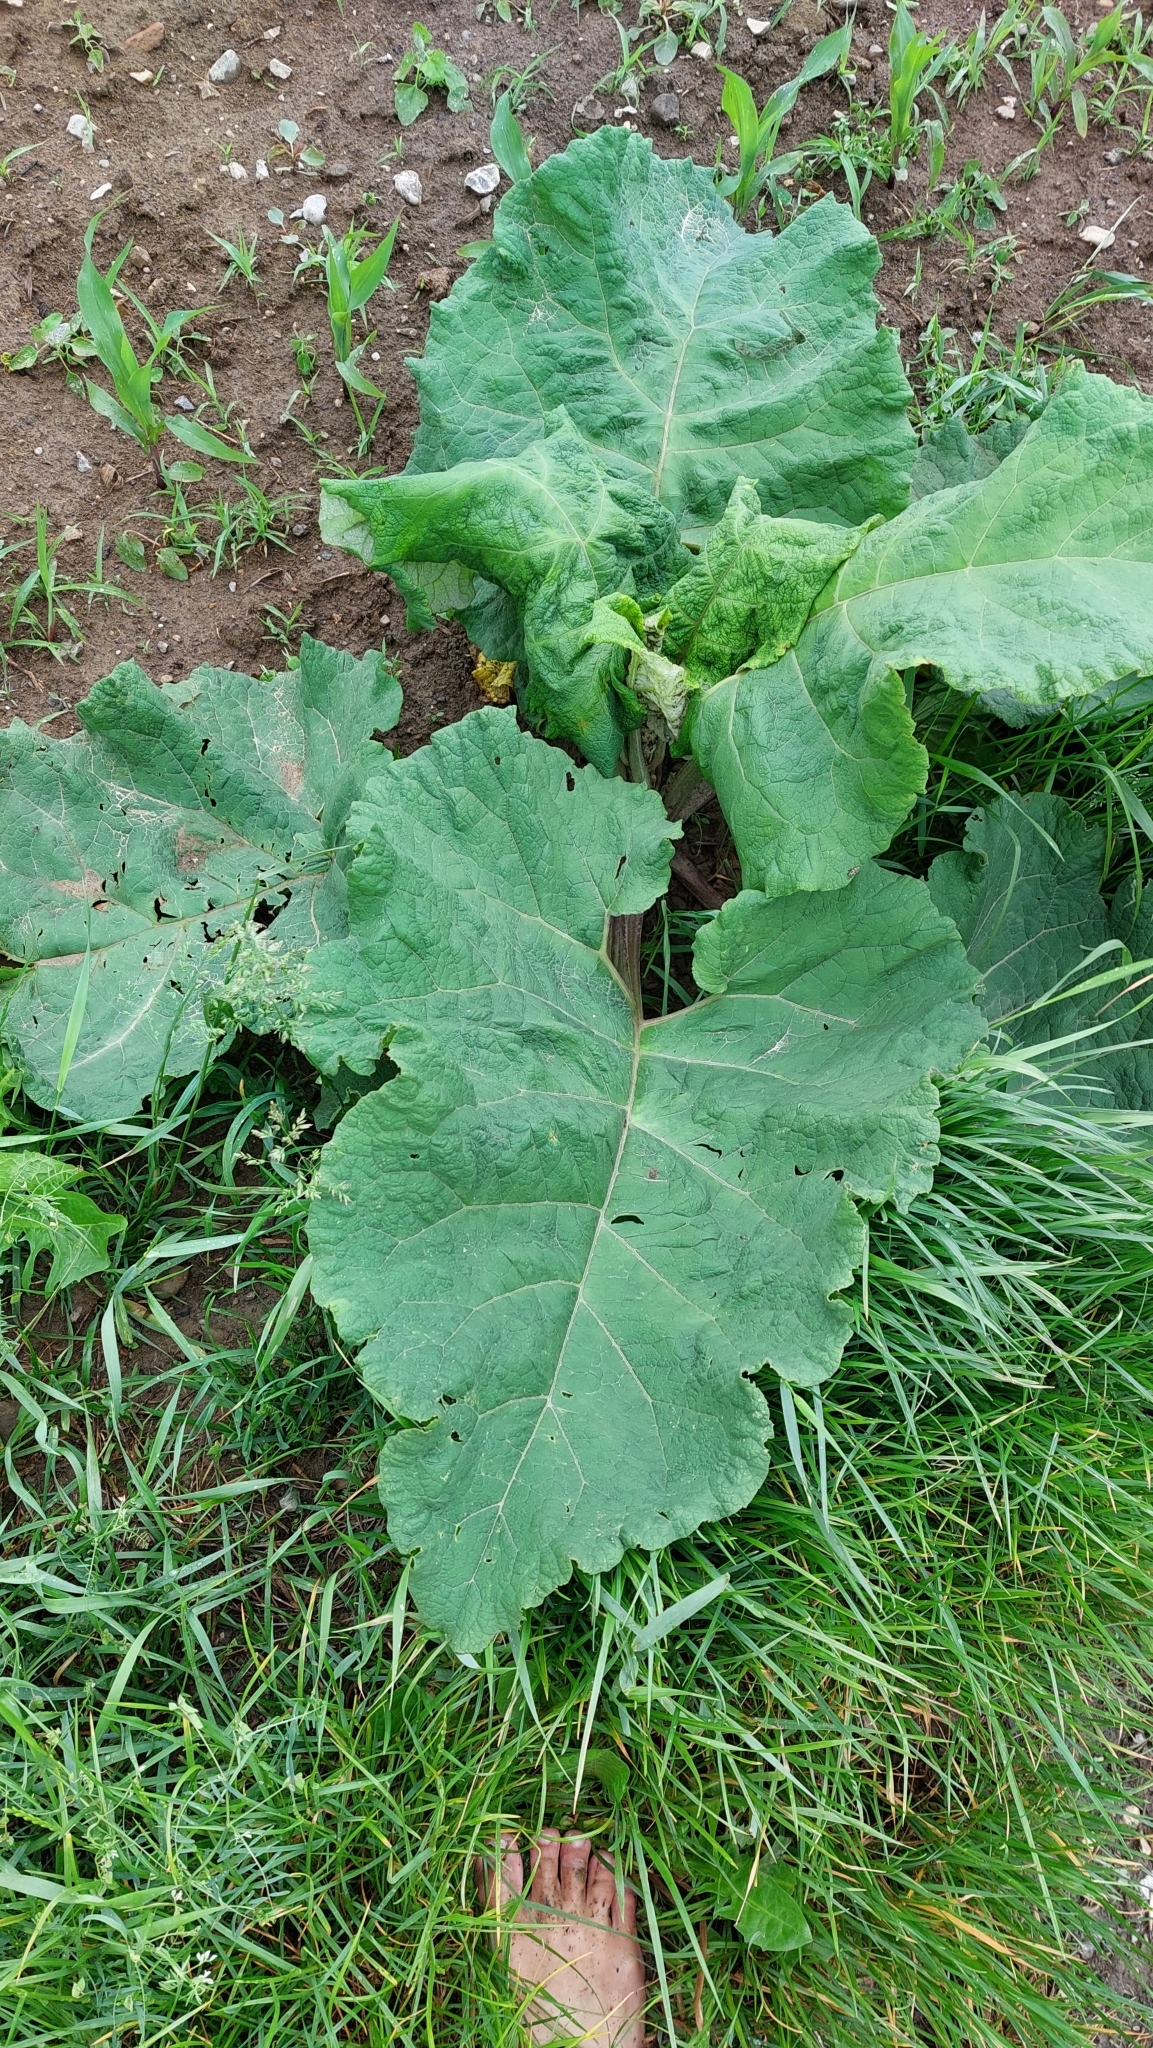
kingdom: Plantae
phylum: Tracheophyta
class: Magnoliopsida
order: Asterales
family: Asteraceae
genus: Arctium
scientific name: Arctium
